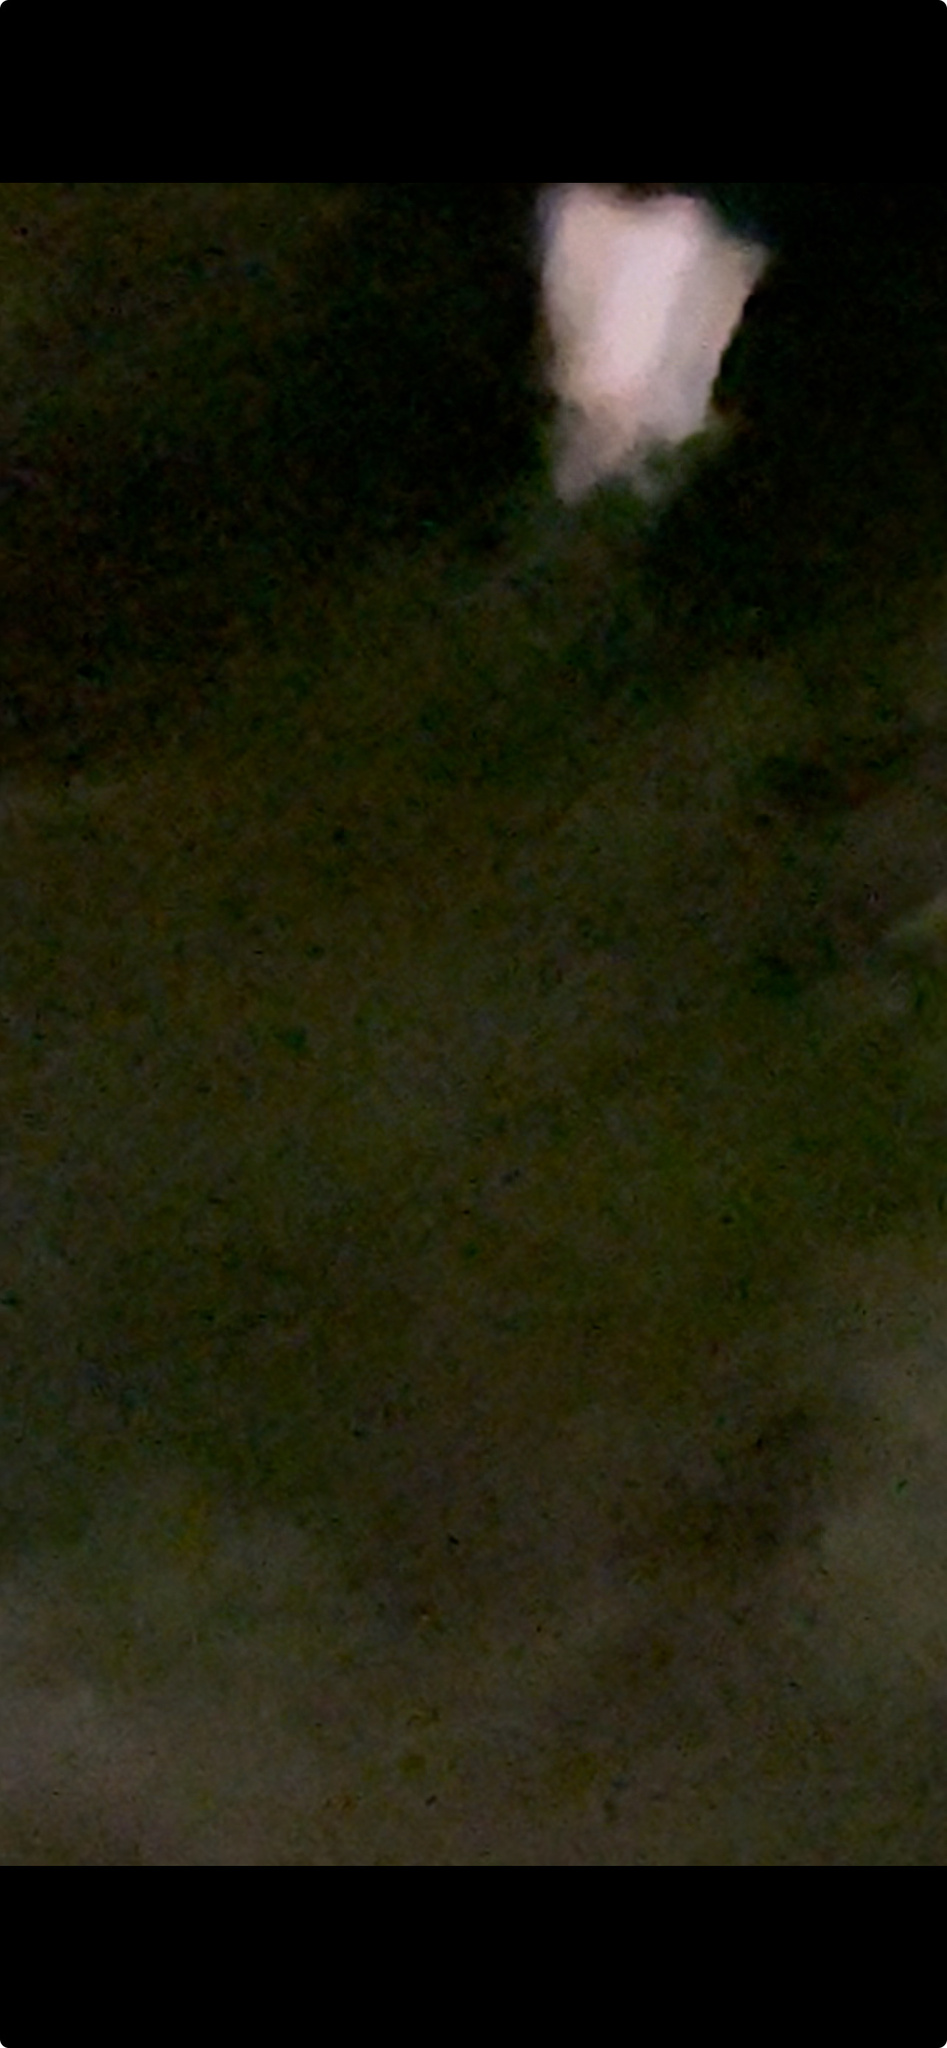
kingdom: Animalia
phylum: Chordata
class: Mammalia
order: Rodentia
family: Sciuridae
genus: Glaucomys
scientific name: Glaucomys volans
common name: Southern flying squirrel
